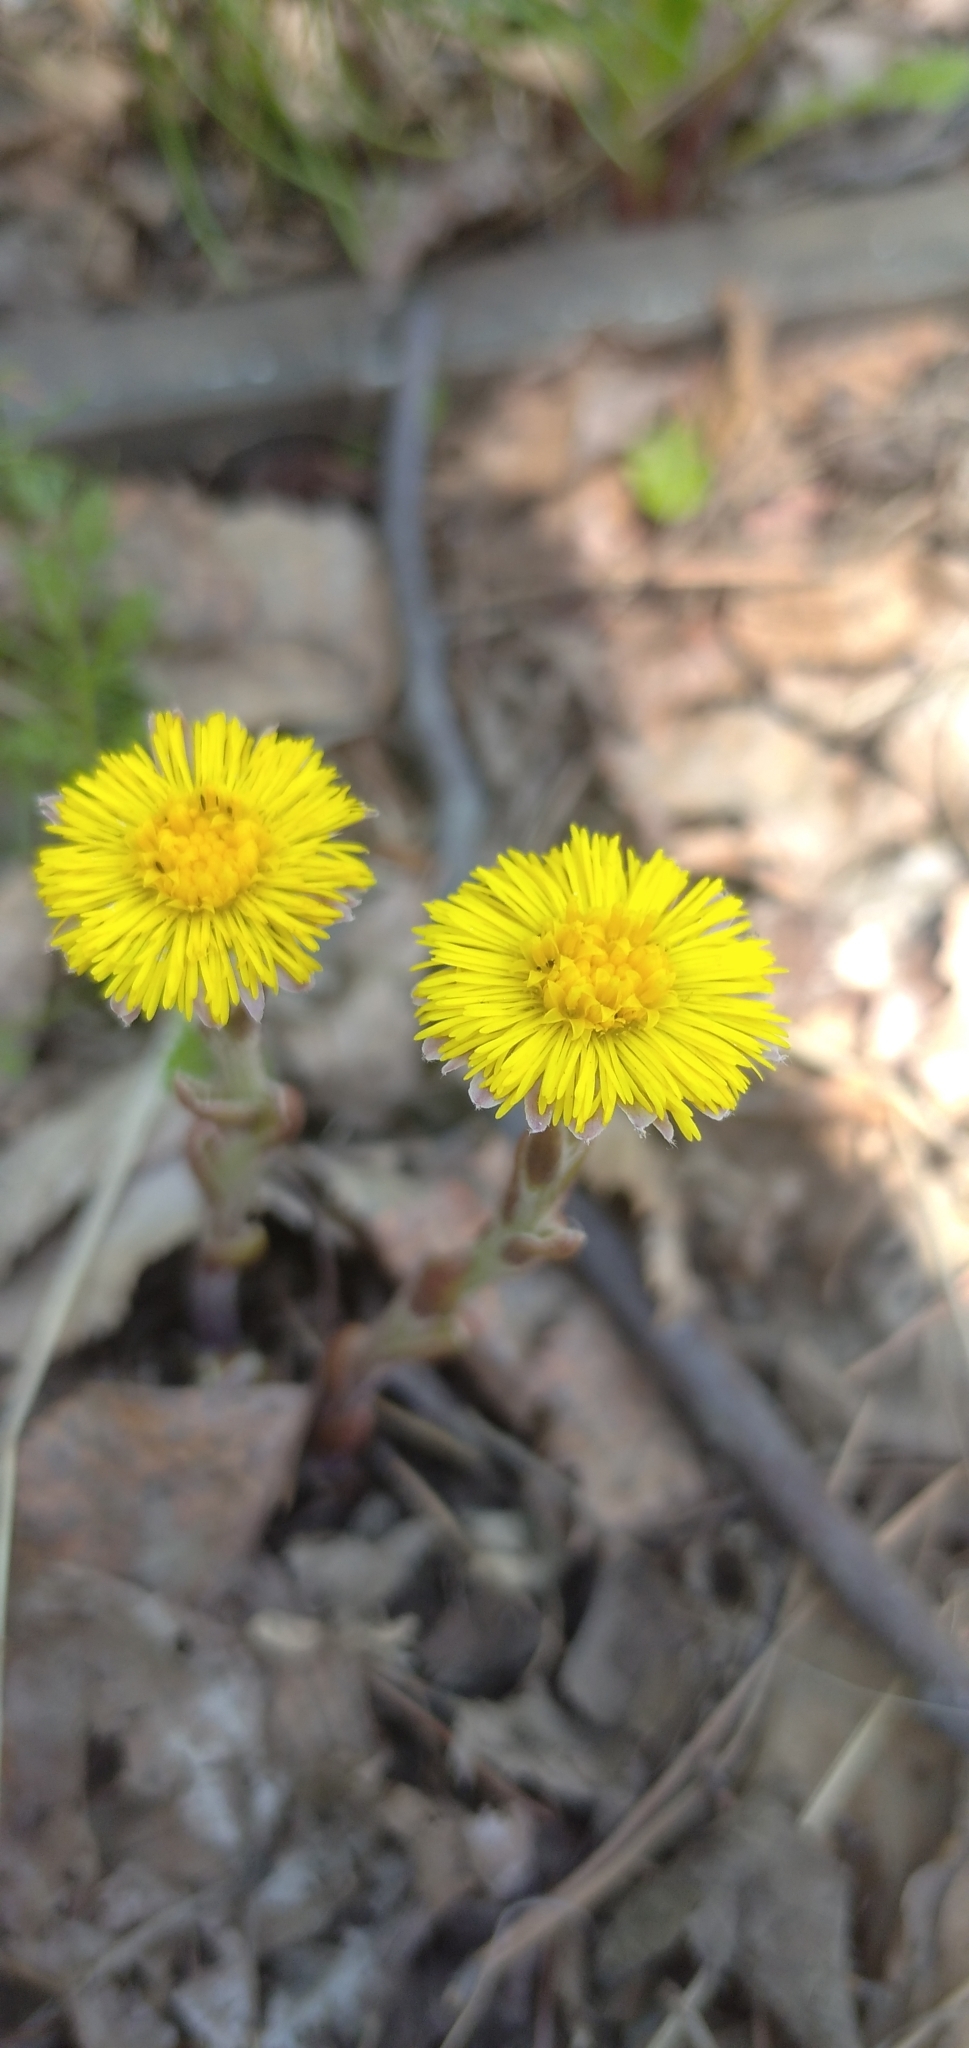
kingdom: Plantae
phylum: Tracheophyta
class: Magnoliopsida
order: Asterales
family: Asteraceae
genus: Tussilago
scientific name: Tussilago farfara
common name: Coltsfoot
